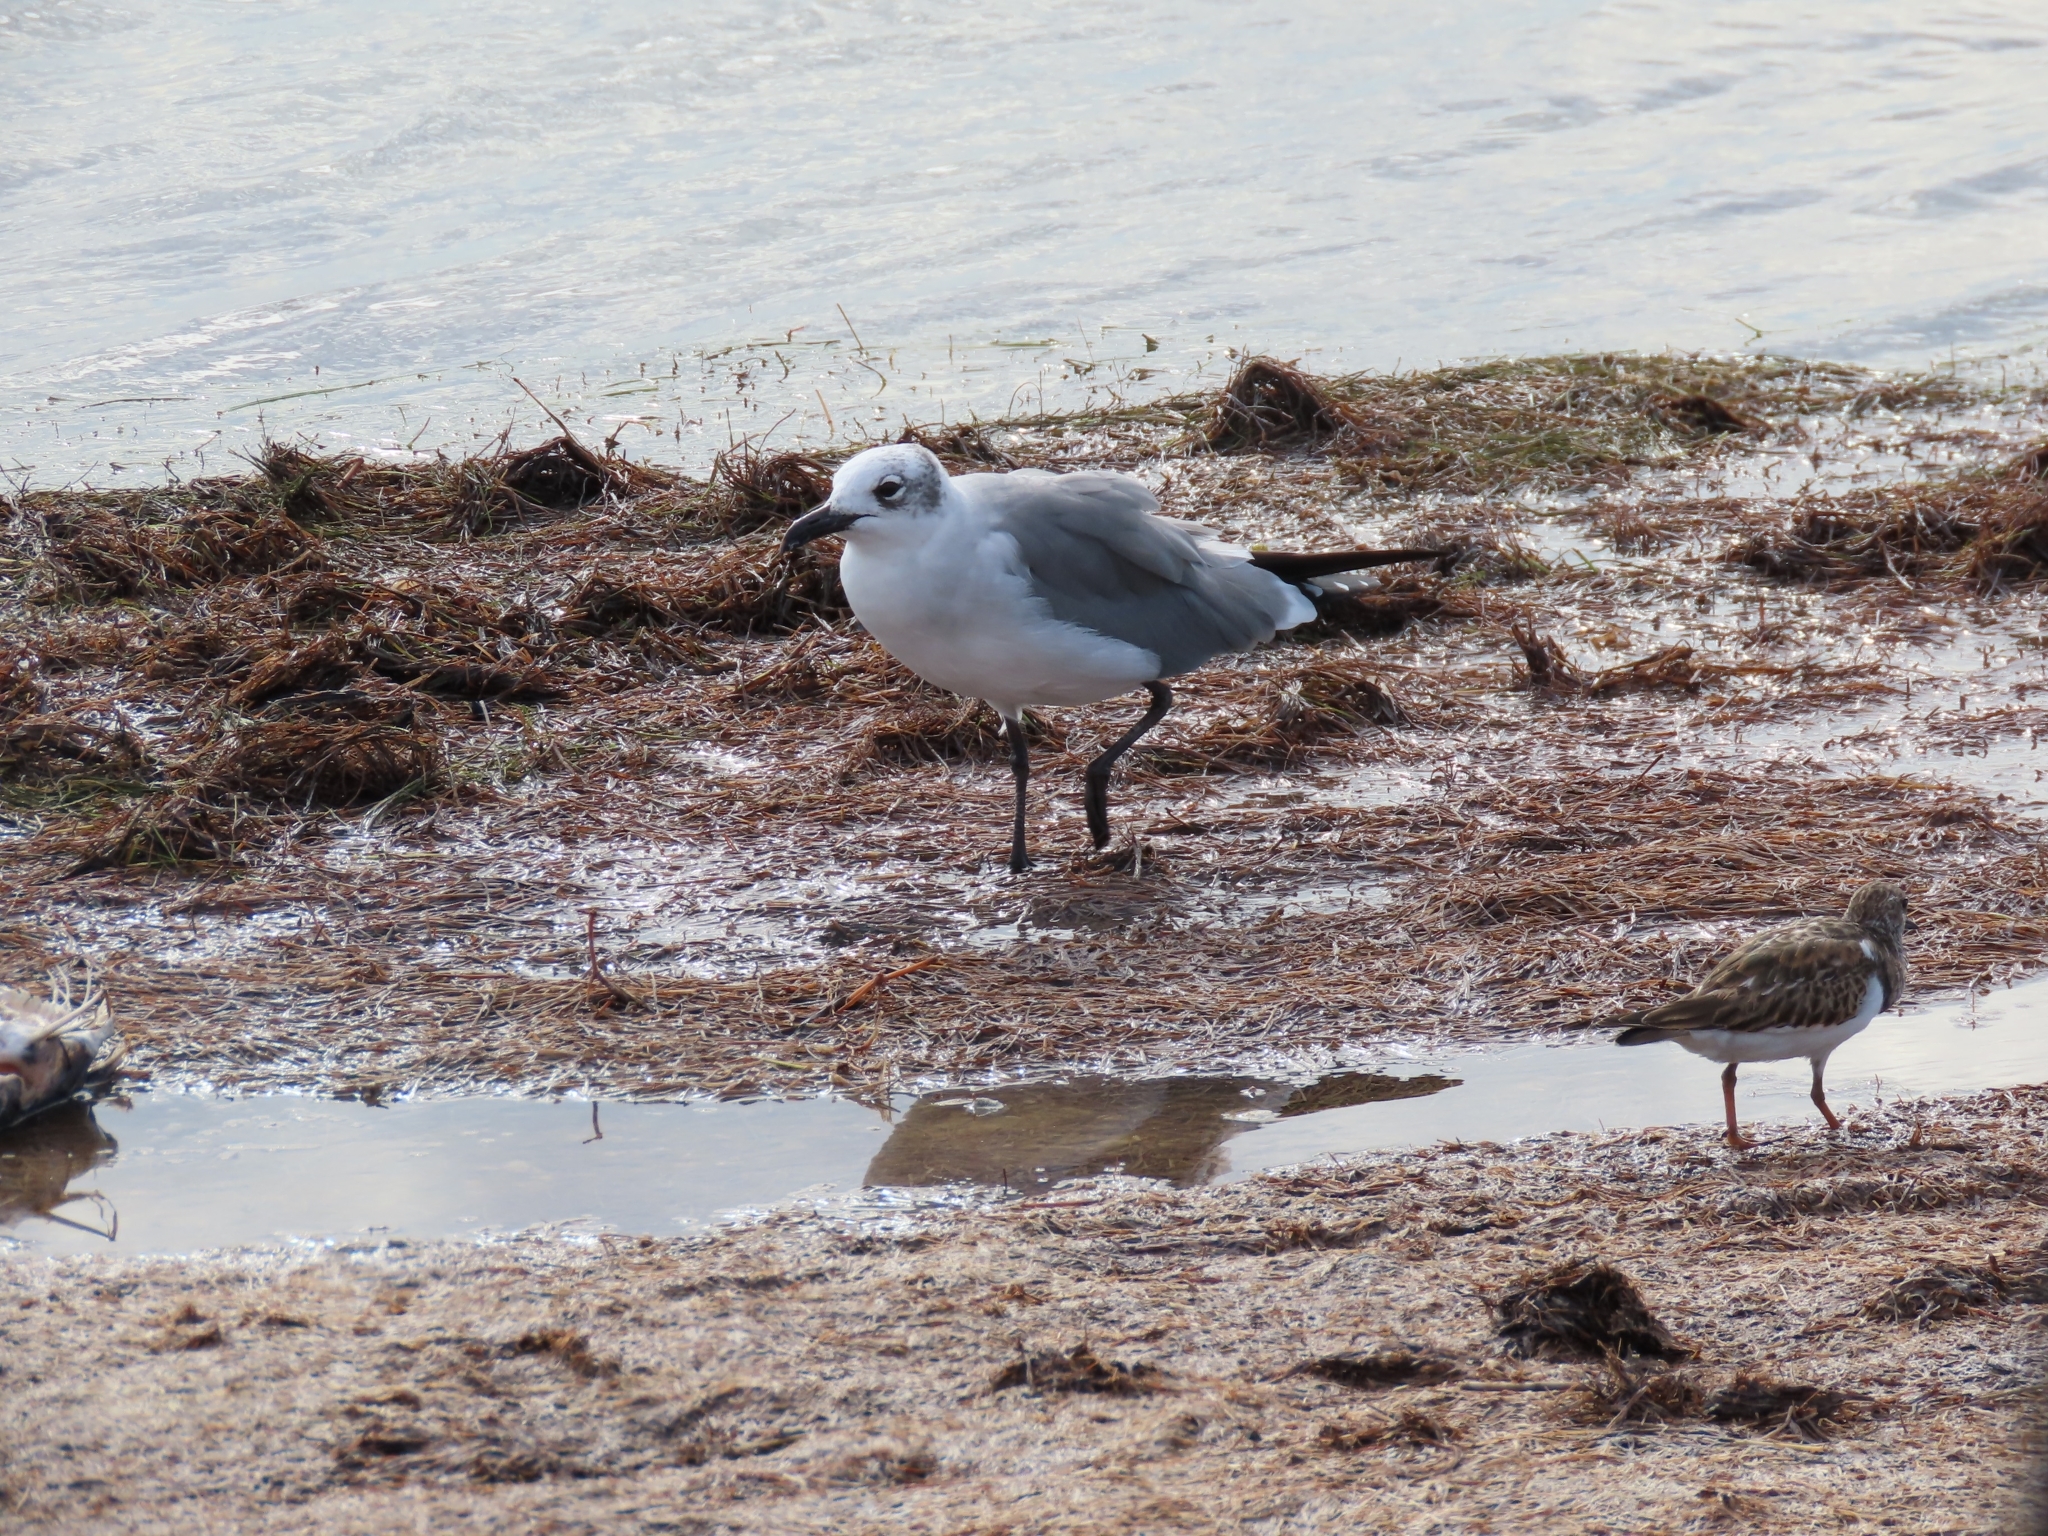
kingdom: Animalia
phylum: Chordata
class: Aves
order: Charadriiformes
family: Laridae
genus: Leucophaeus
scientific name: Leucophaeus atricilla
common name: Laughing gull
